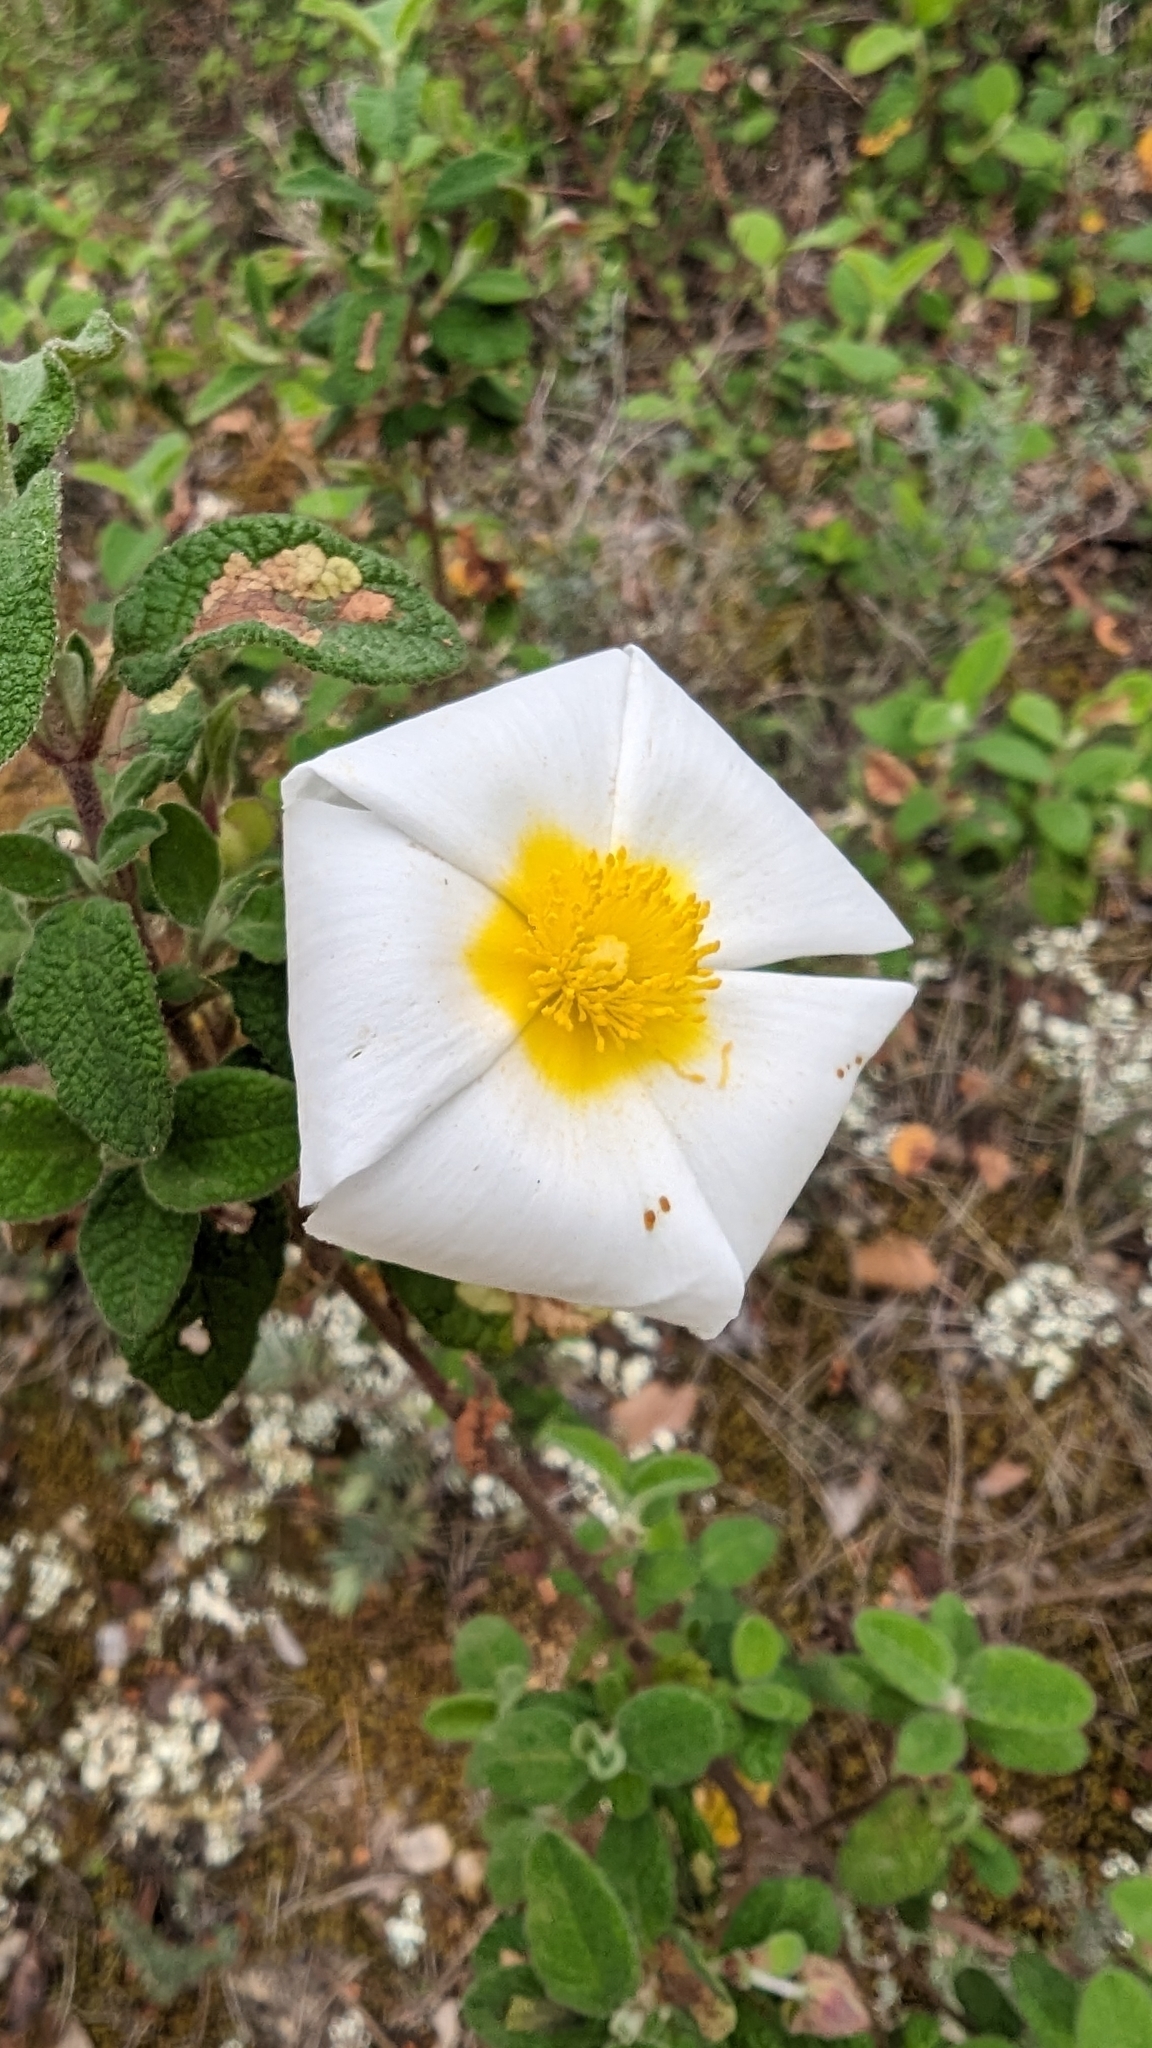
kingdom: Plantae
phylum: Tracheophyta
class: Magnoliopsida
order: Malvales
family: Cistaceae
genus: Cistus
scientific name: Cistus salviifolius
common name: Salvia cistus
